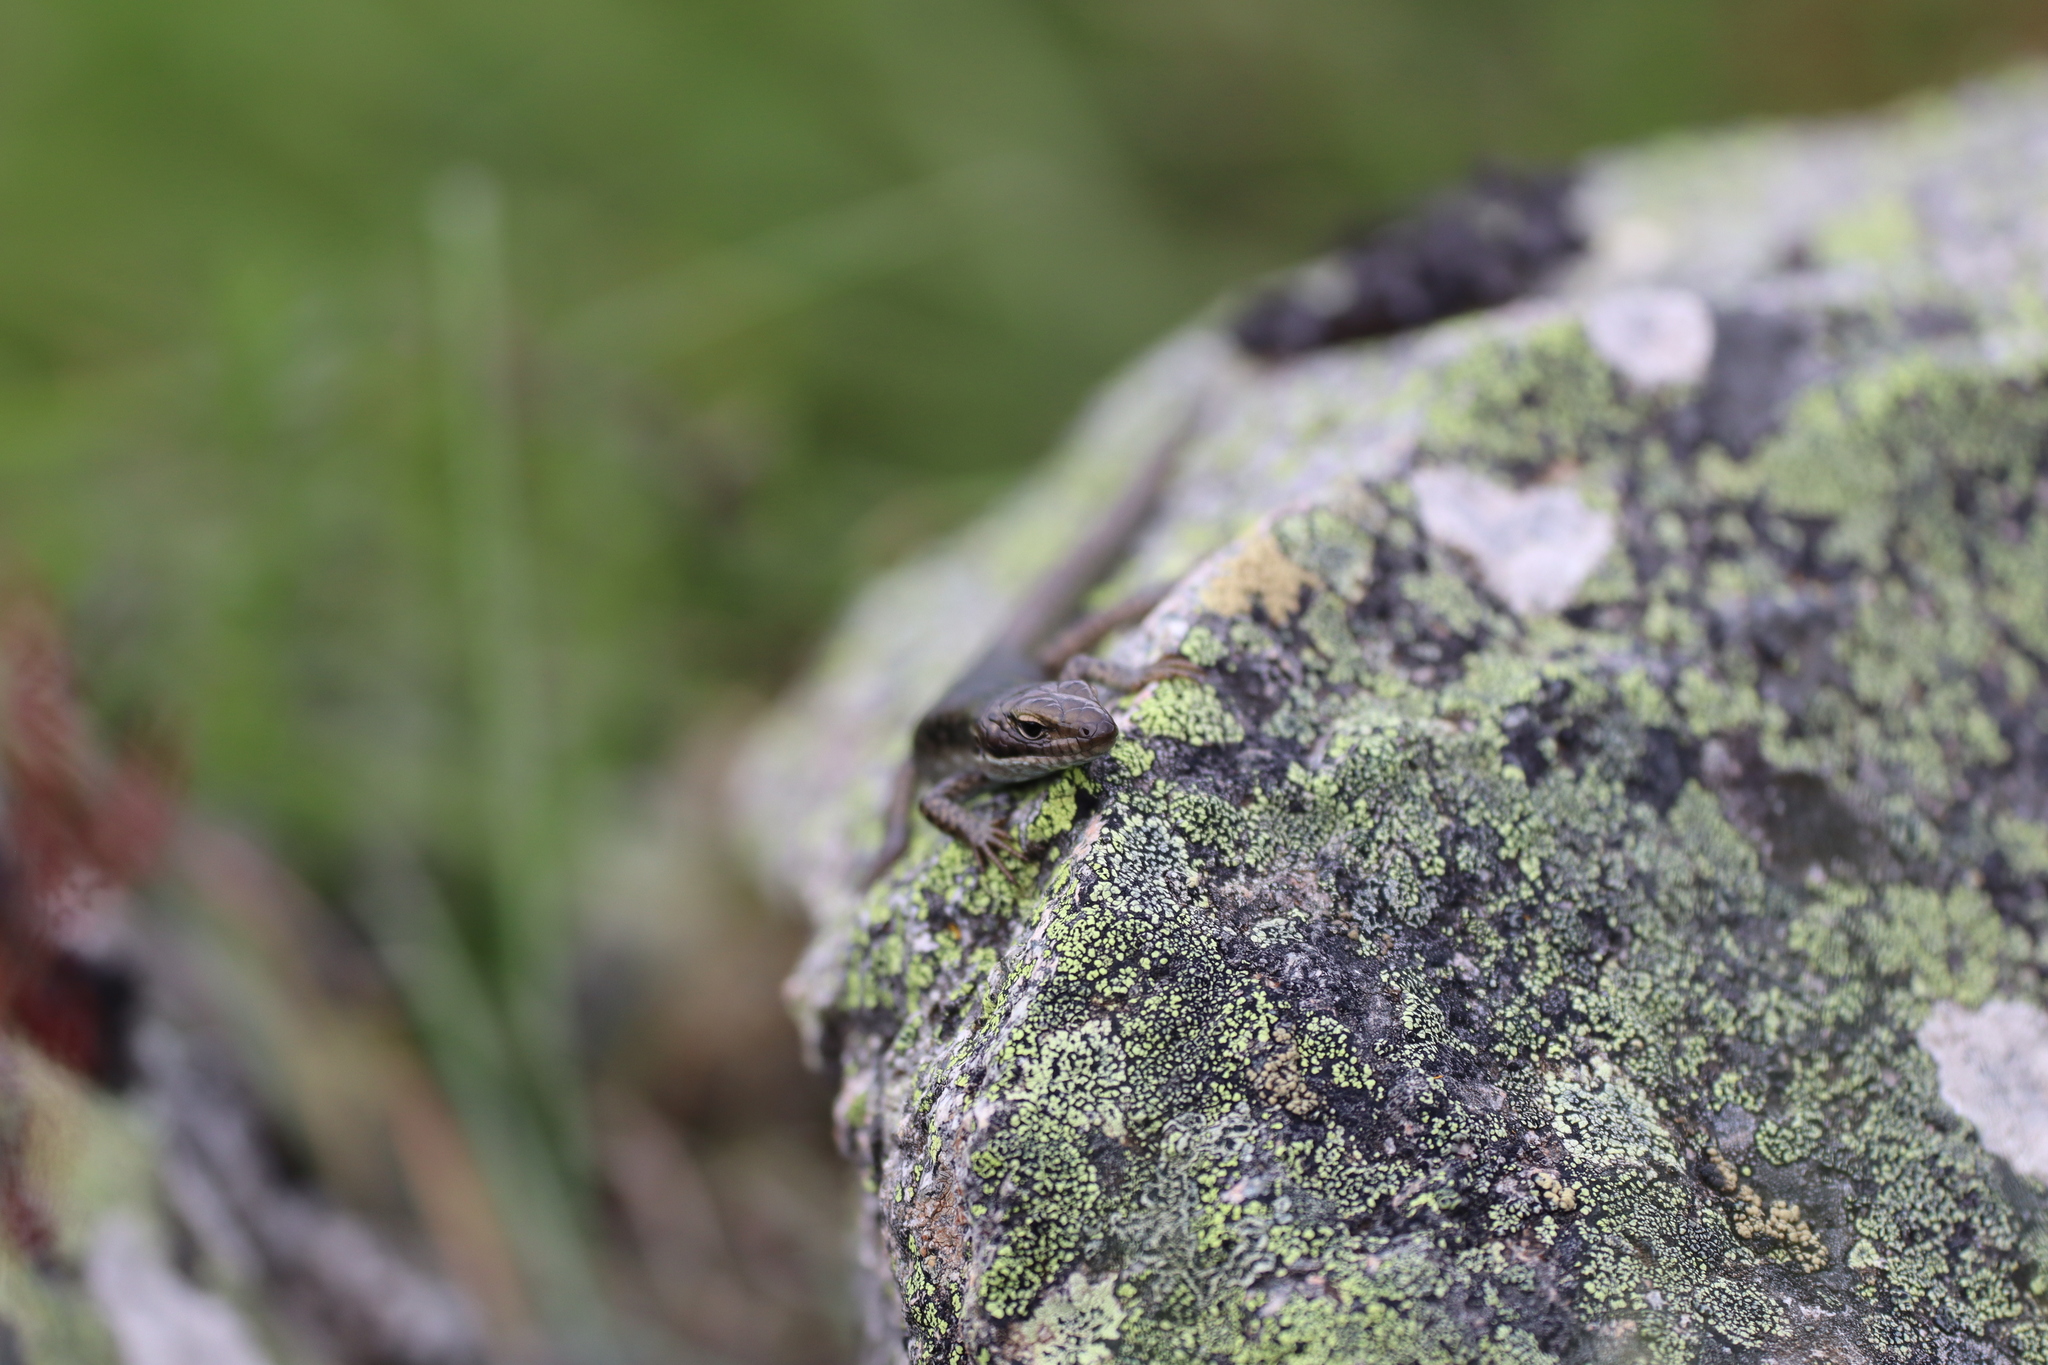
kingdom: Animalia
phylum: Chordata
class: Squamata
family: Scincidae
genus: Eulamprus
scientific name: Eulamprus tympanum
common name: Cool-temperate water-skink
